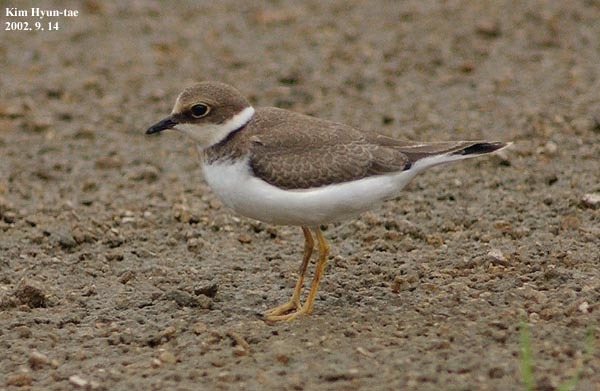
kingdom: Animalia
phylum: Chordata
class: Aves
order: Charadriiformes
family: Charadriidae
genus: Charadrius
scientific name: Charadrius dubius
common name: Little ringed plover
